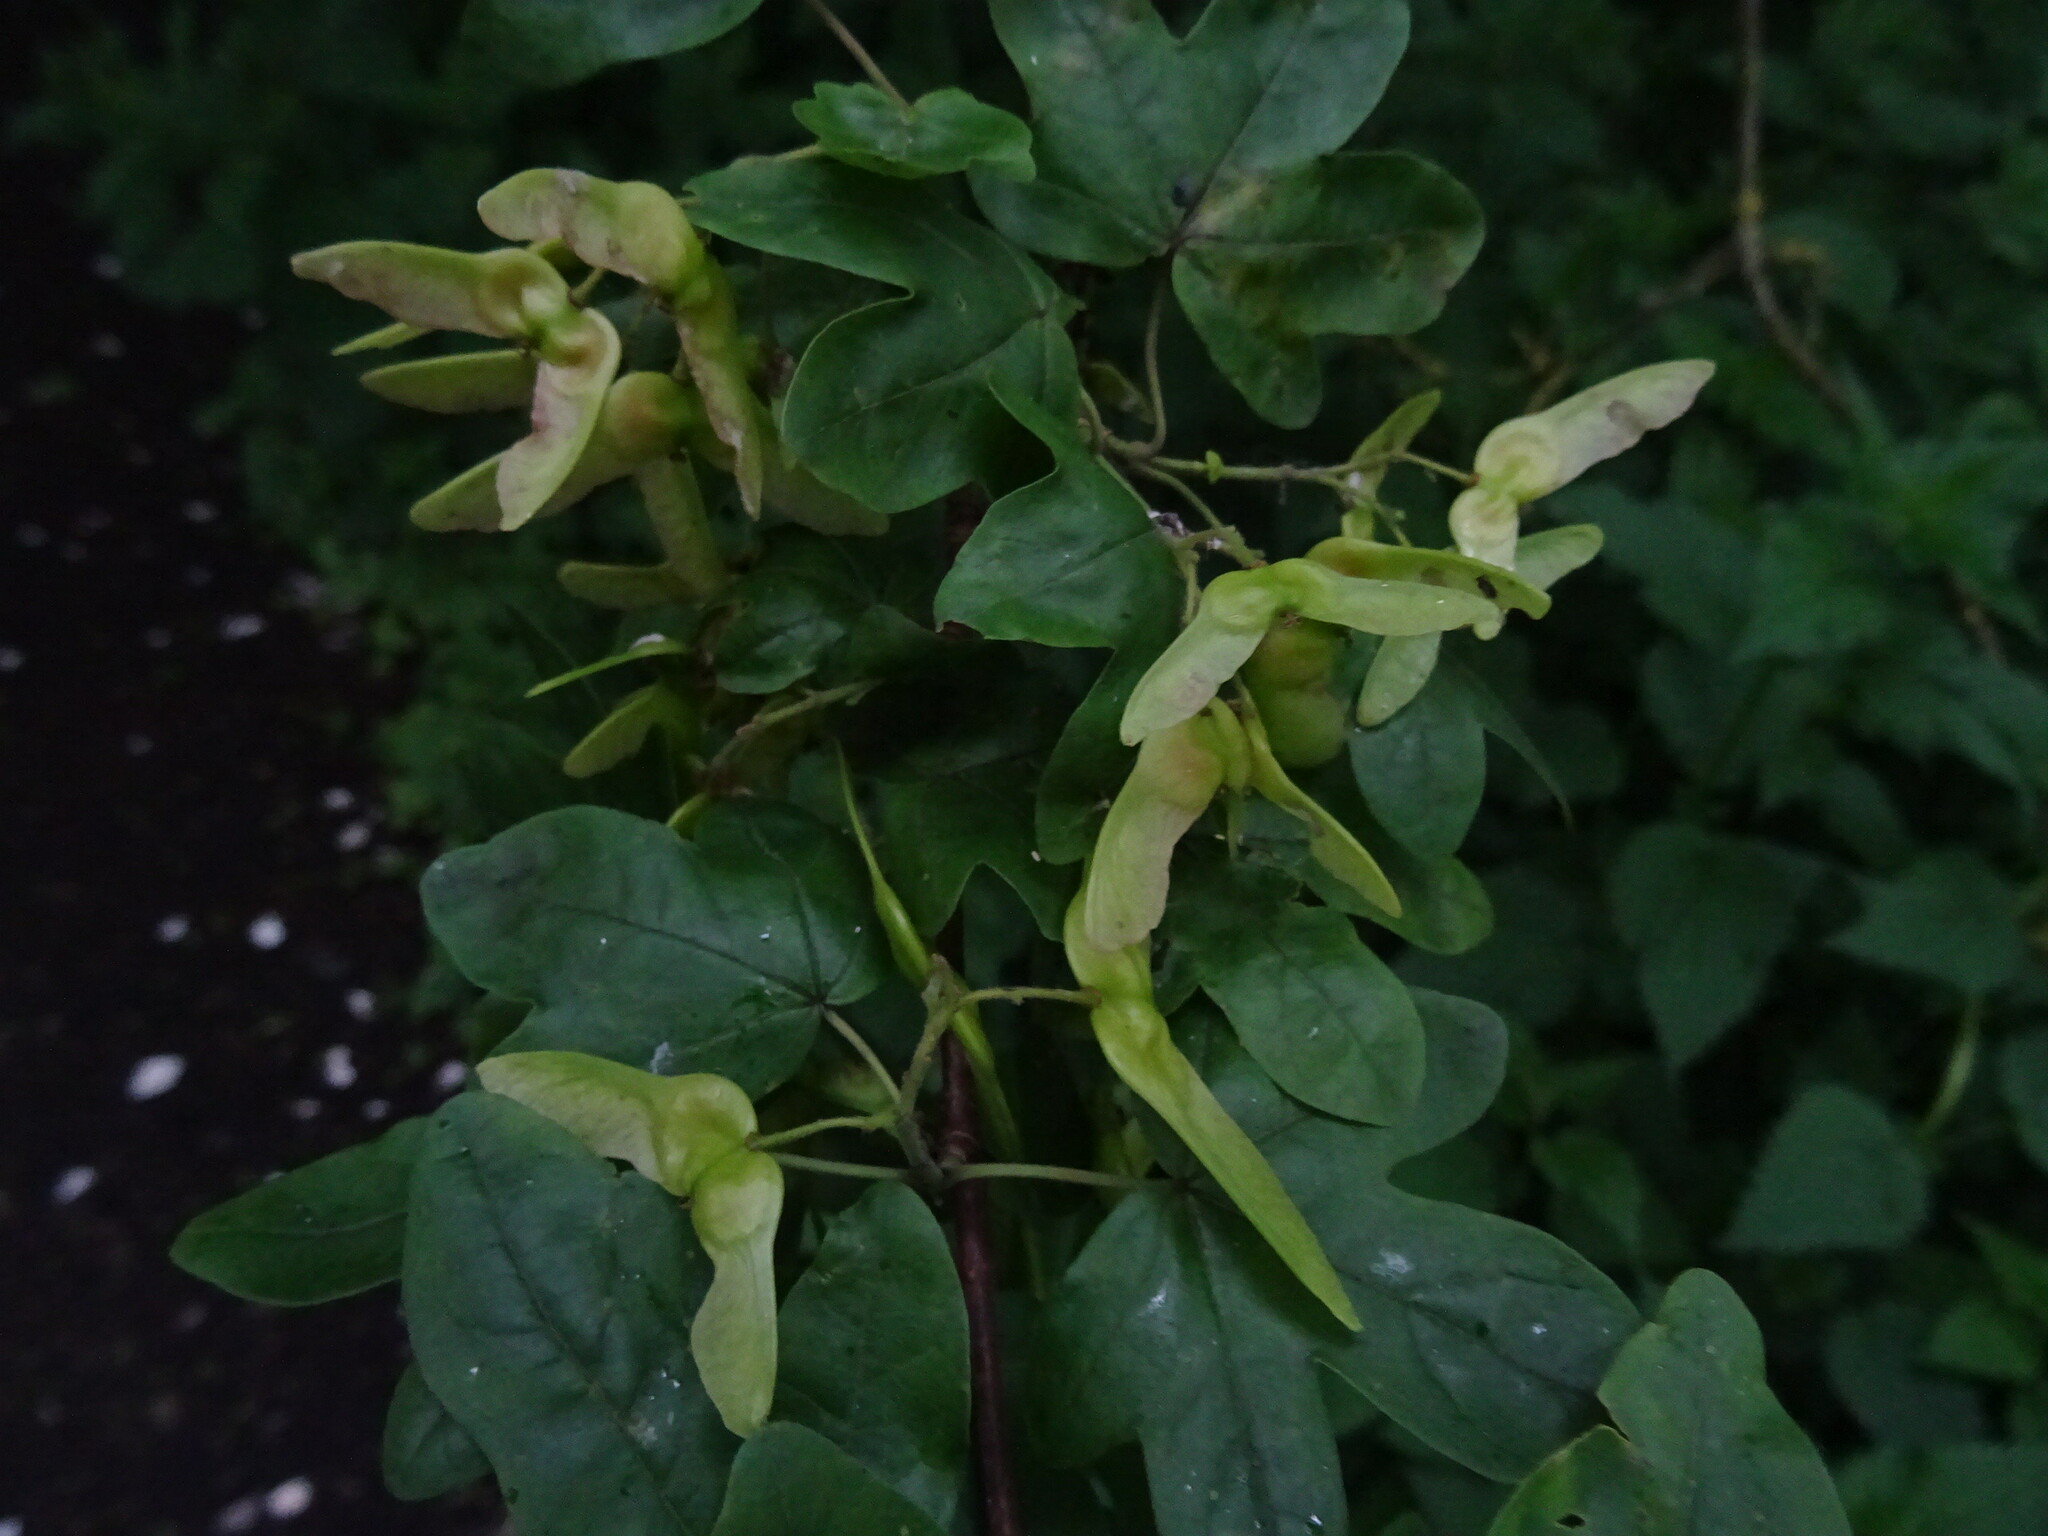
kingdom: Plantae
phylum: Tracheophyta
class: Magnoliopsida
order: Sapindales
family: Sapindaceae
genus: Acer
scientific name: Acer campestre
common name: Field maple
